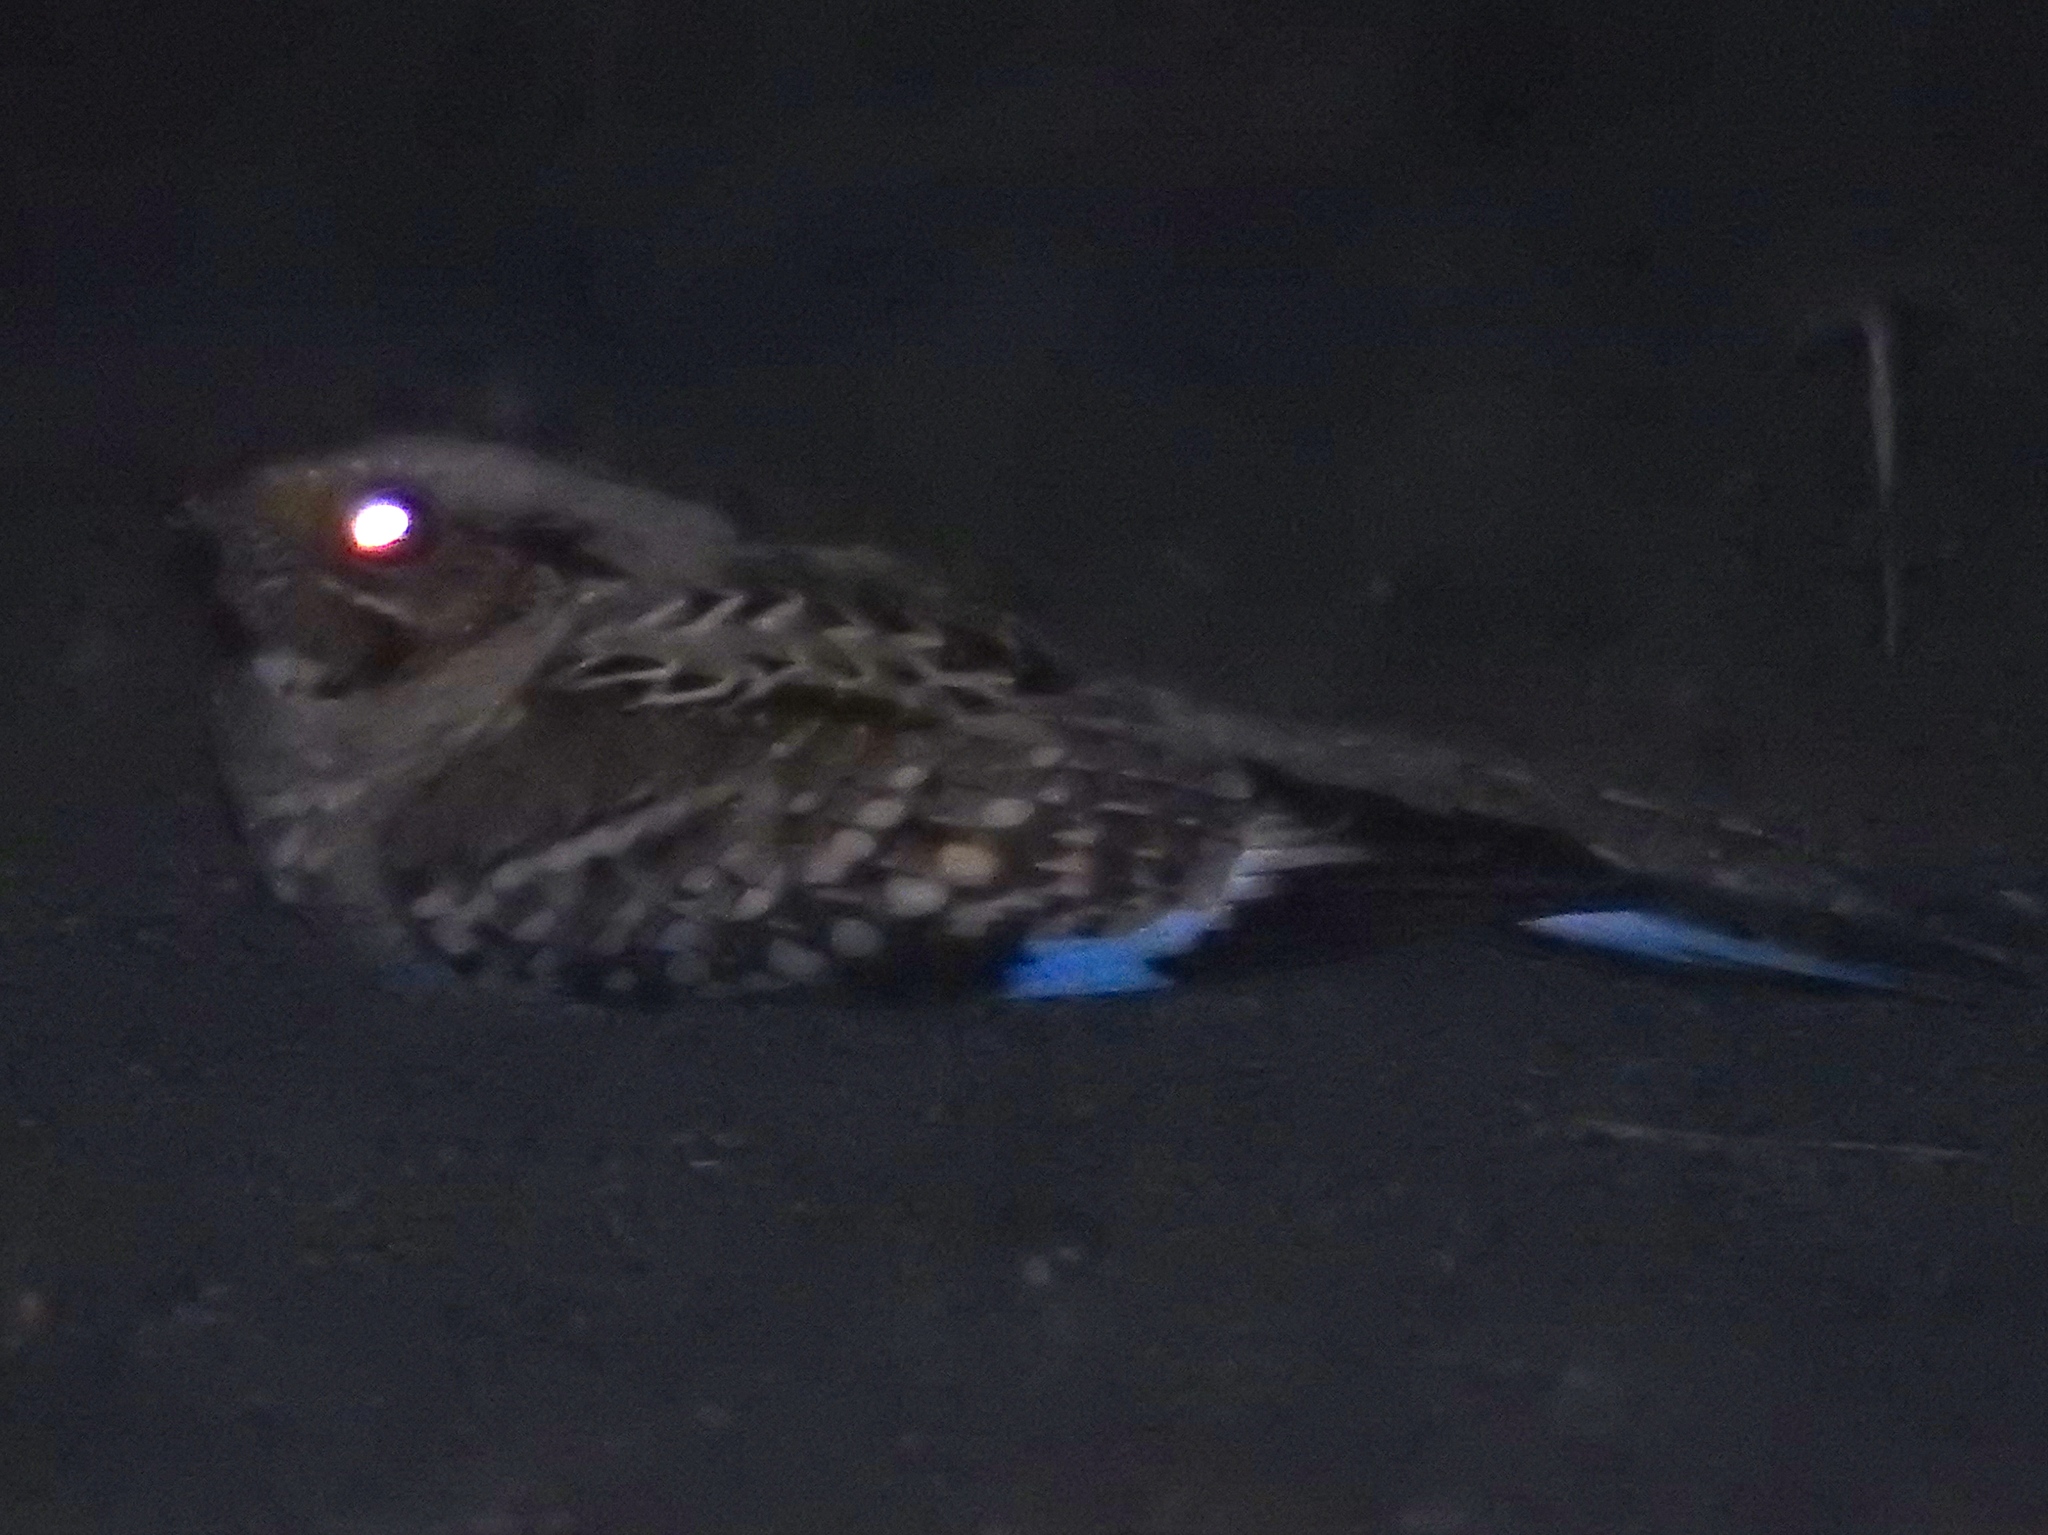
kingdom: Animalia
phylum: Chordata
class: Aves
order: Caprimulgiformes
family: Caprimulgidae
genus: Nyctidromus
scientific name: Nyctidromus albicollis
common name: Pauraque
